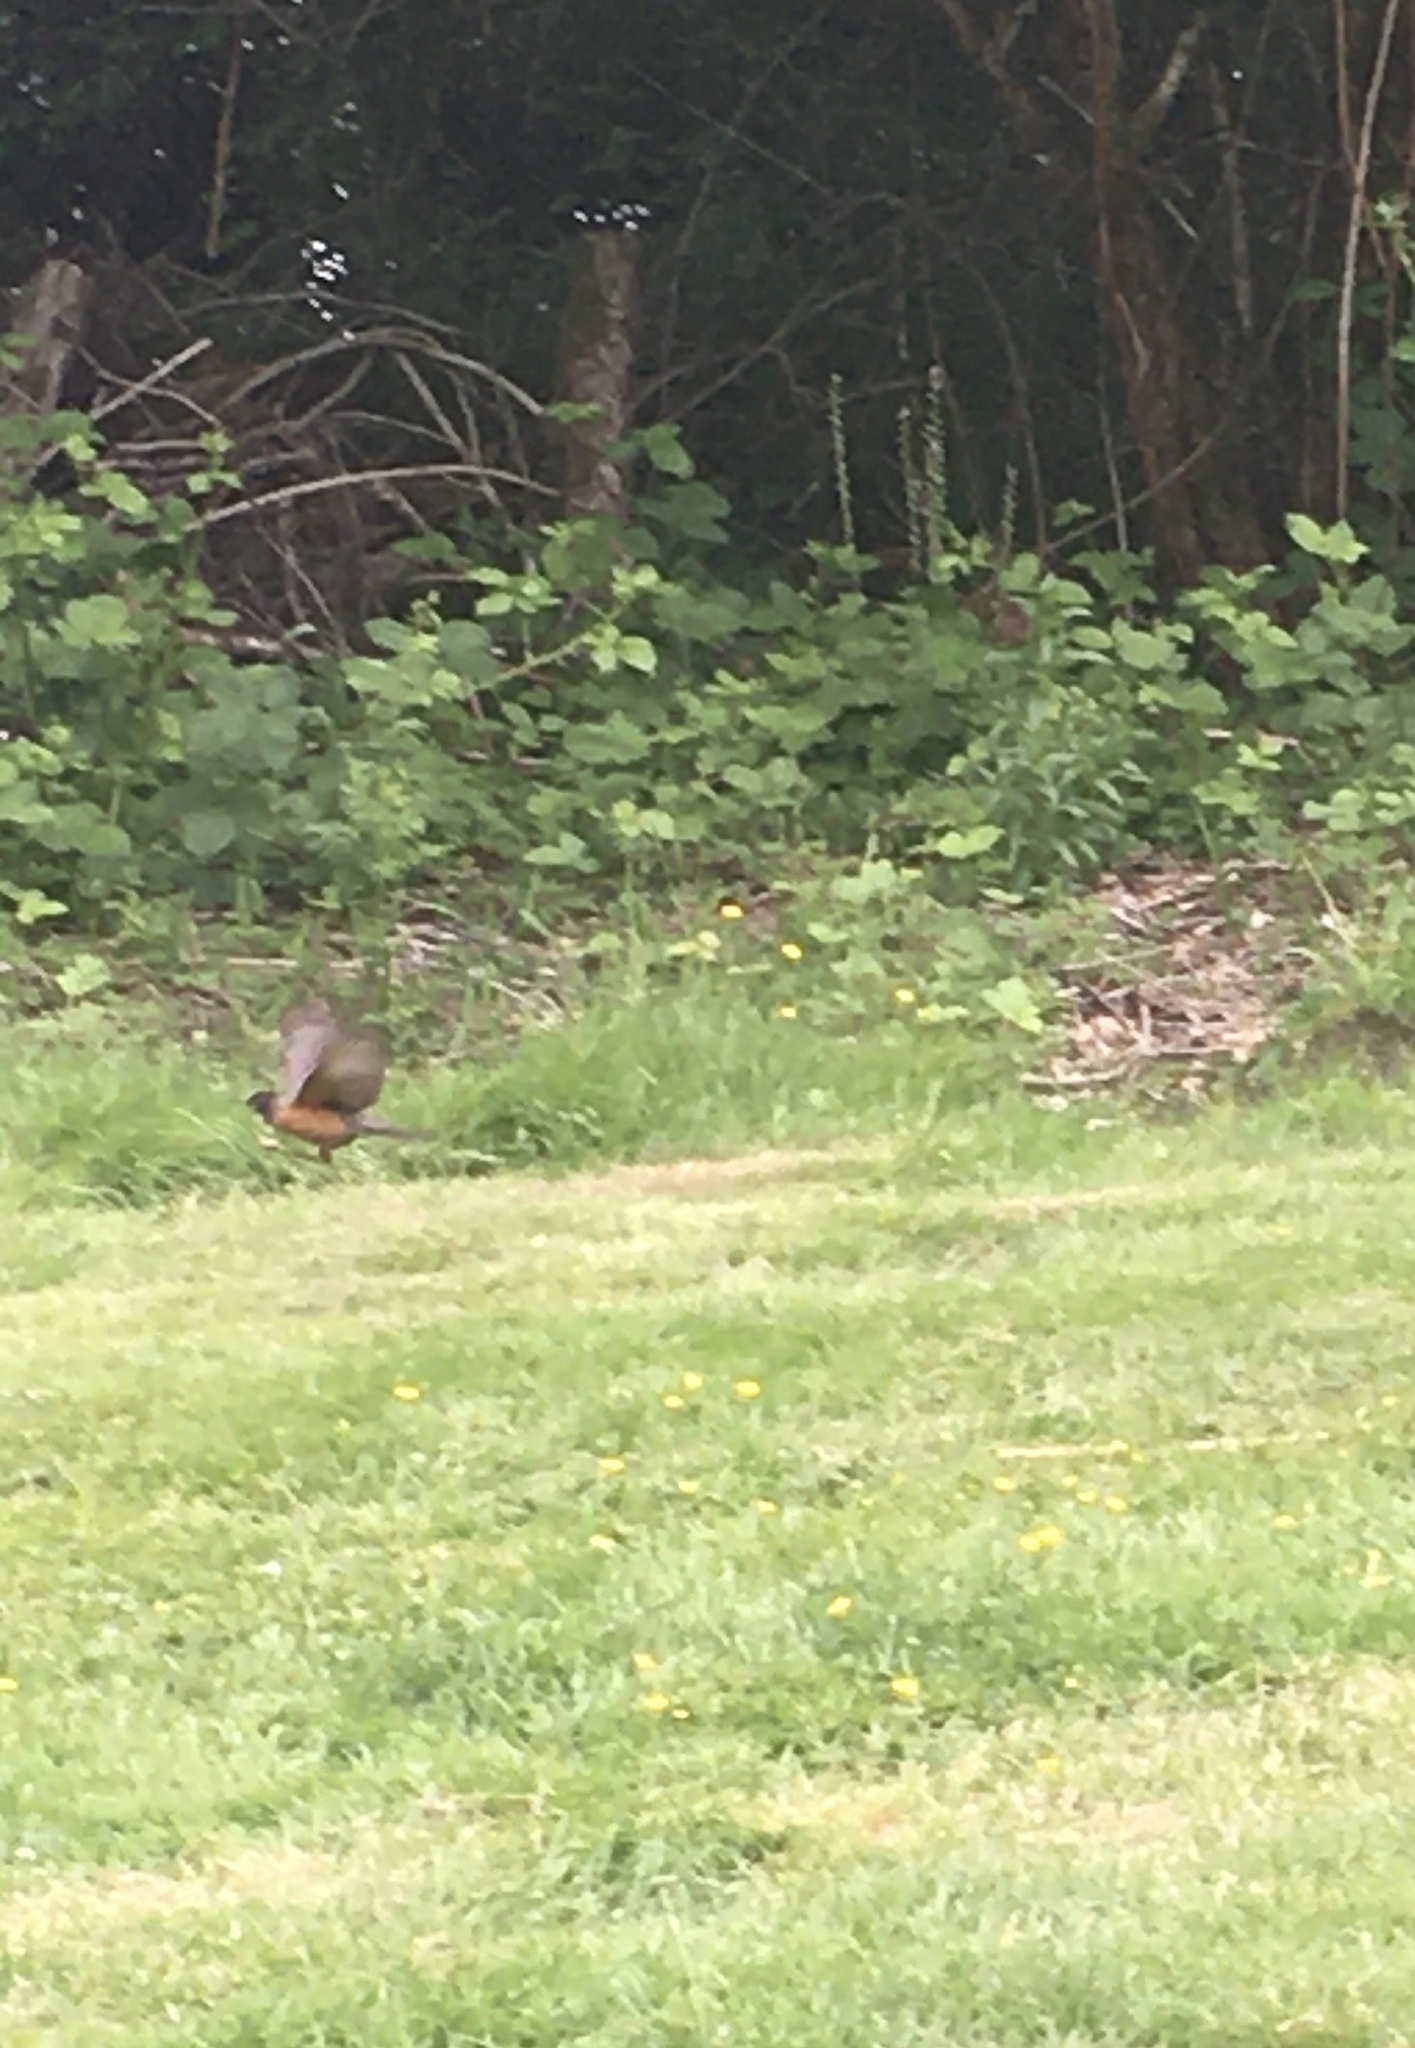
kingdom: Animalia
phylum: Chordata
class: Aves
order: Passeriformes
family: Turdidae
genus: Turdus
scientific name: Turdus migratorius
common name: American robin
